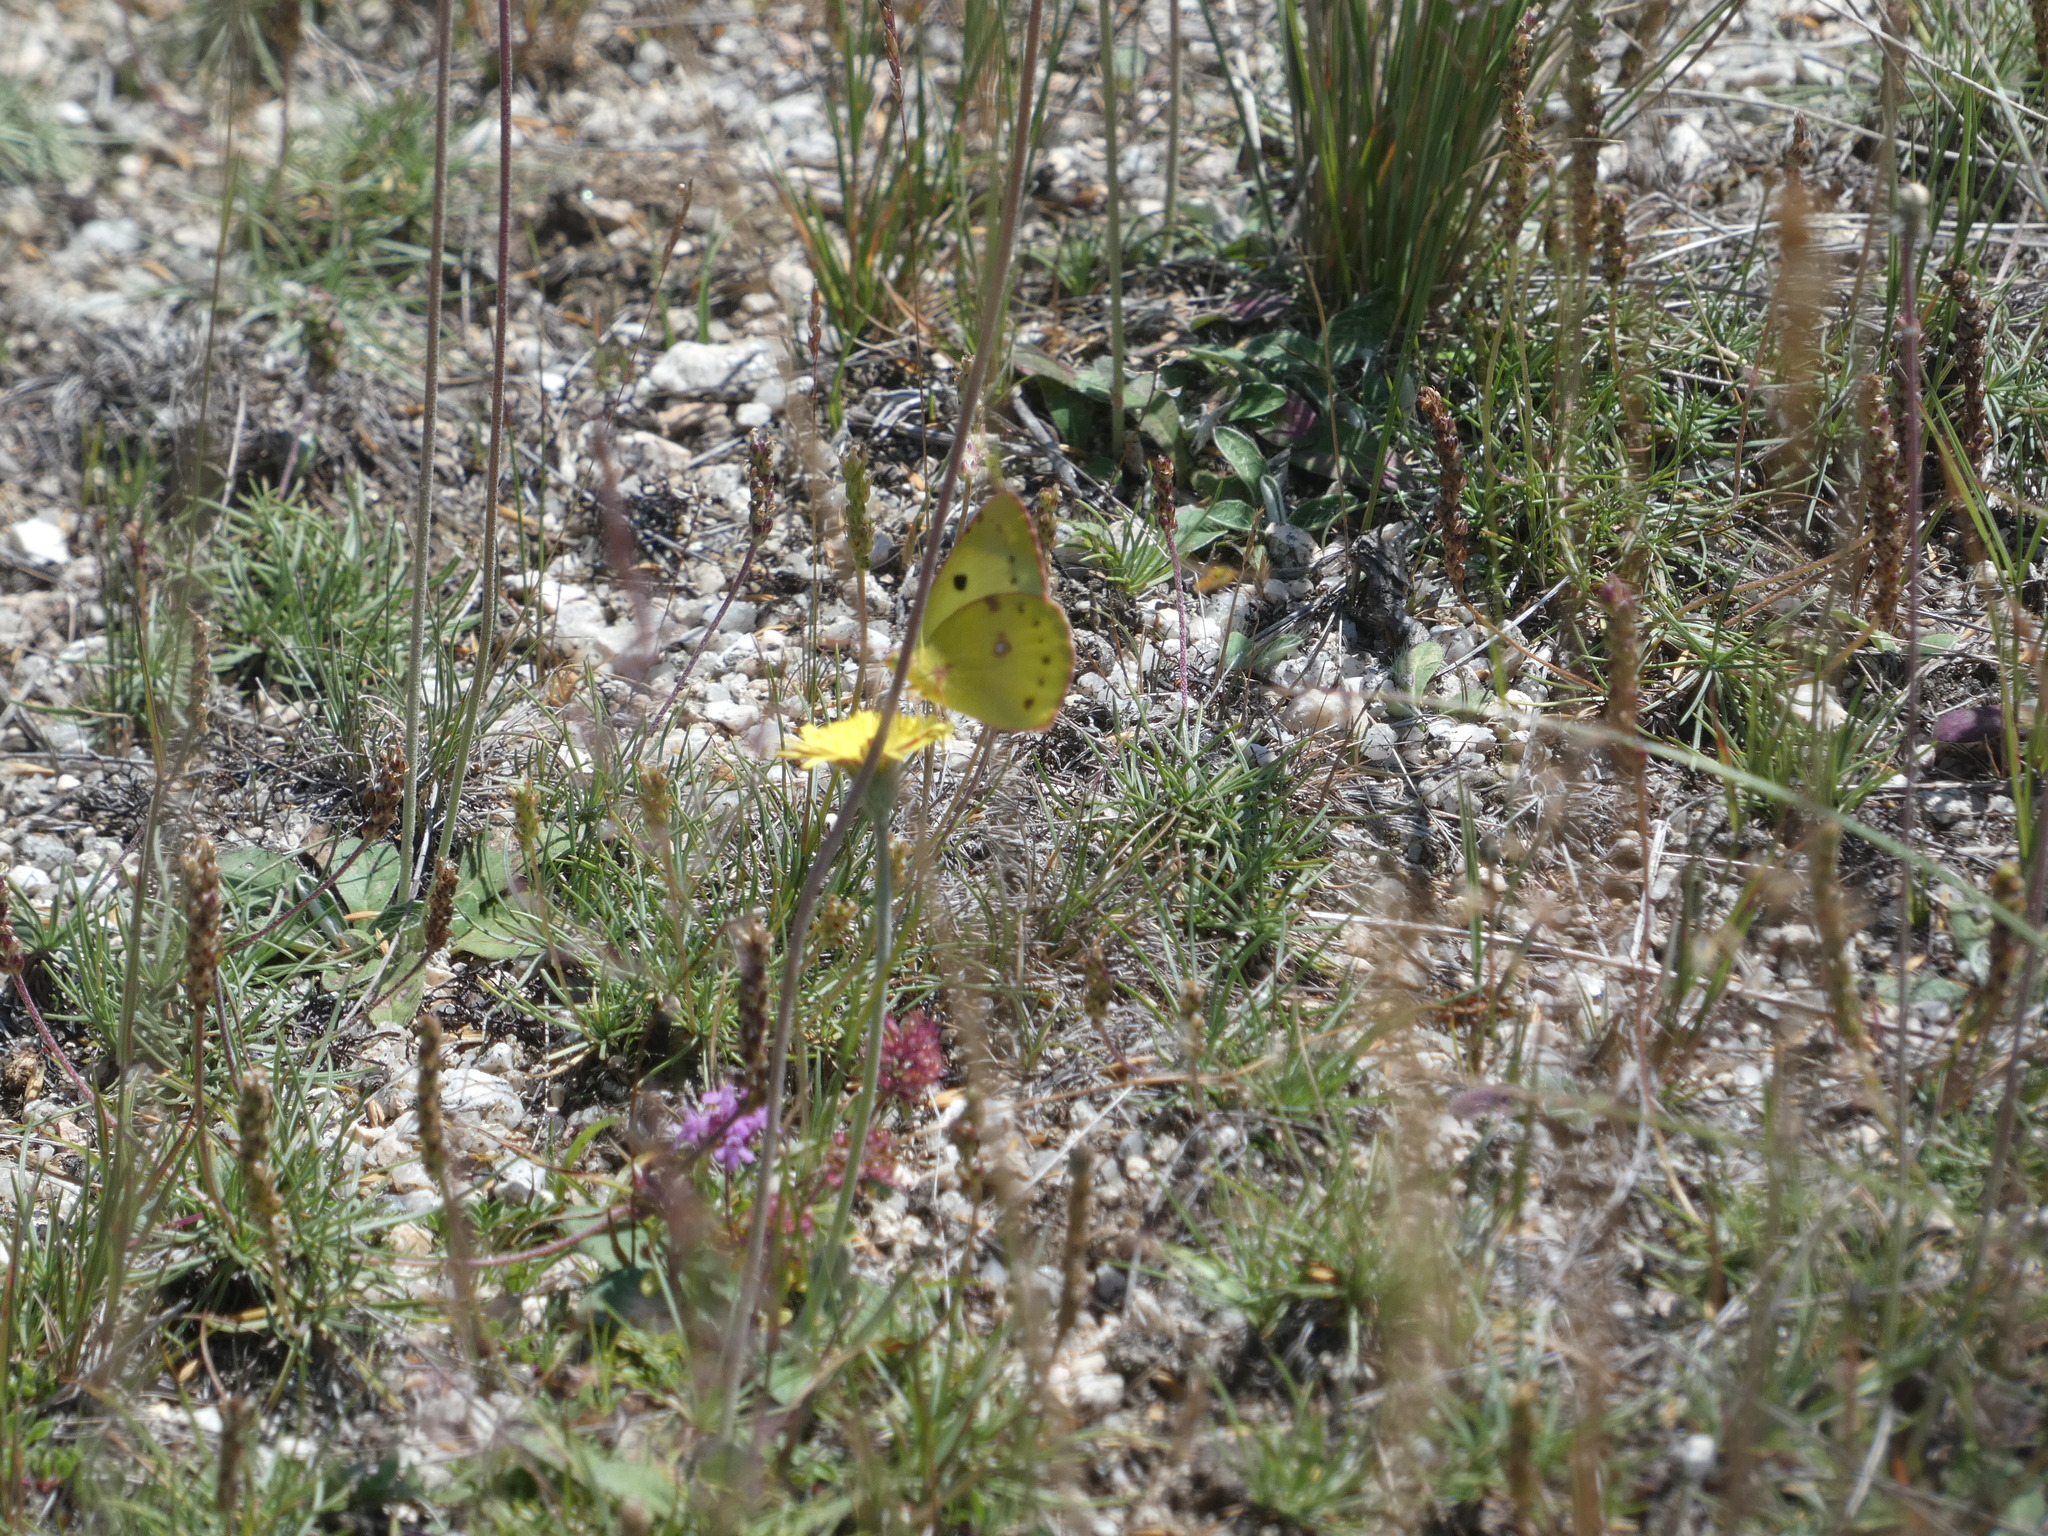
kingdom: Animalia
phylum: Arthropoda
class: Insecta
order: Lepidoptera
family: Pieridae
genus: Colias
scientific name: Colias croceus
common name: Clouded yellow
